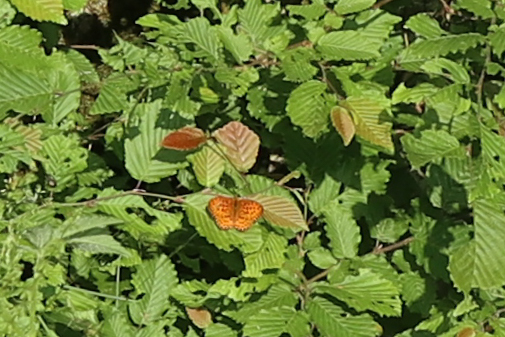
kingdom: Animalia
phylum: Arthropoda
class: Insecta
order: Lepidoptera
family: Nymphalidae
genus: Brenthis
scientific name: Brenthis daphne
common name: Marbled fritillary
